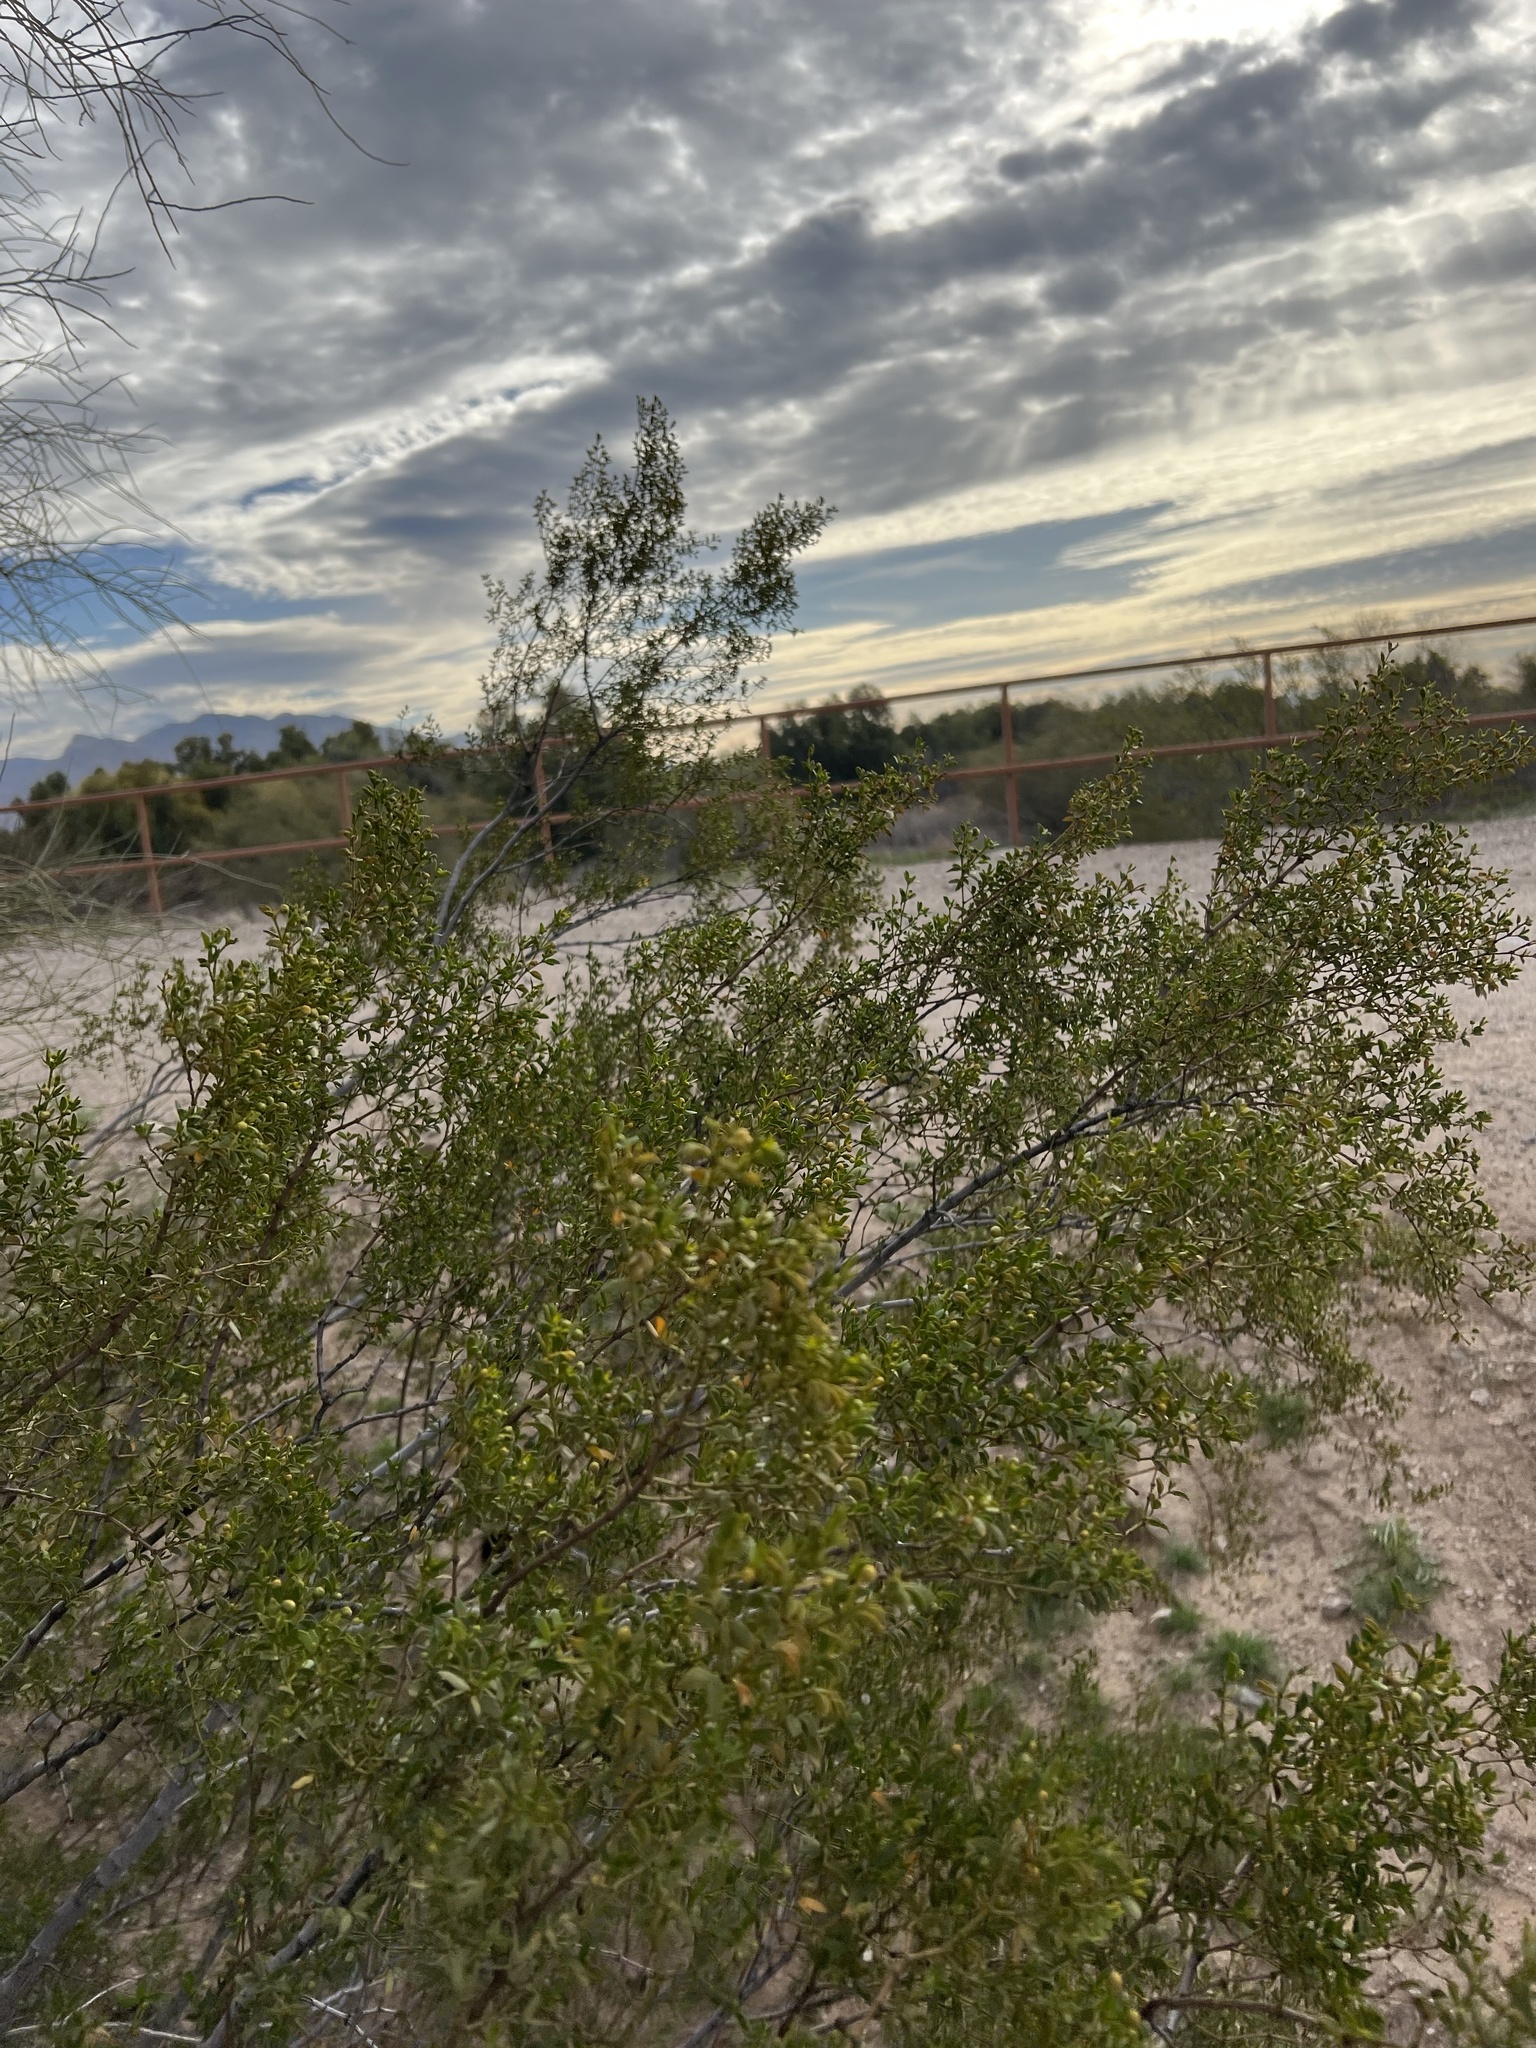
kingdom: Plantae
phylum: Tracheophyta
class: Magnoliopsida
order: Zygophyllales
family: Zygophyllaceae
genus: Larrea
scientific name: Larrea tridentata
